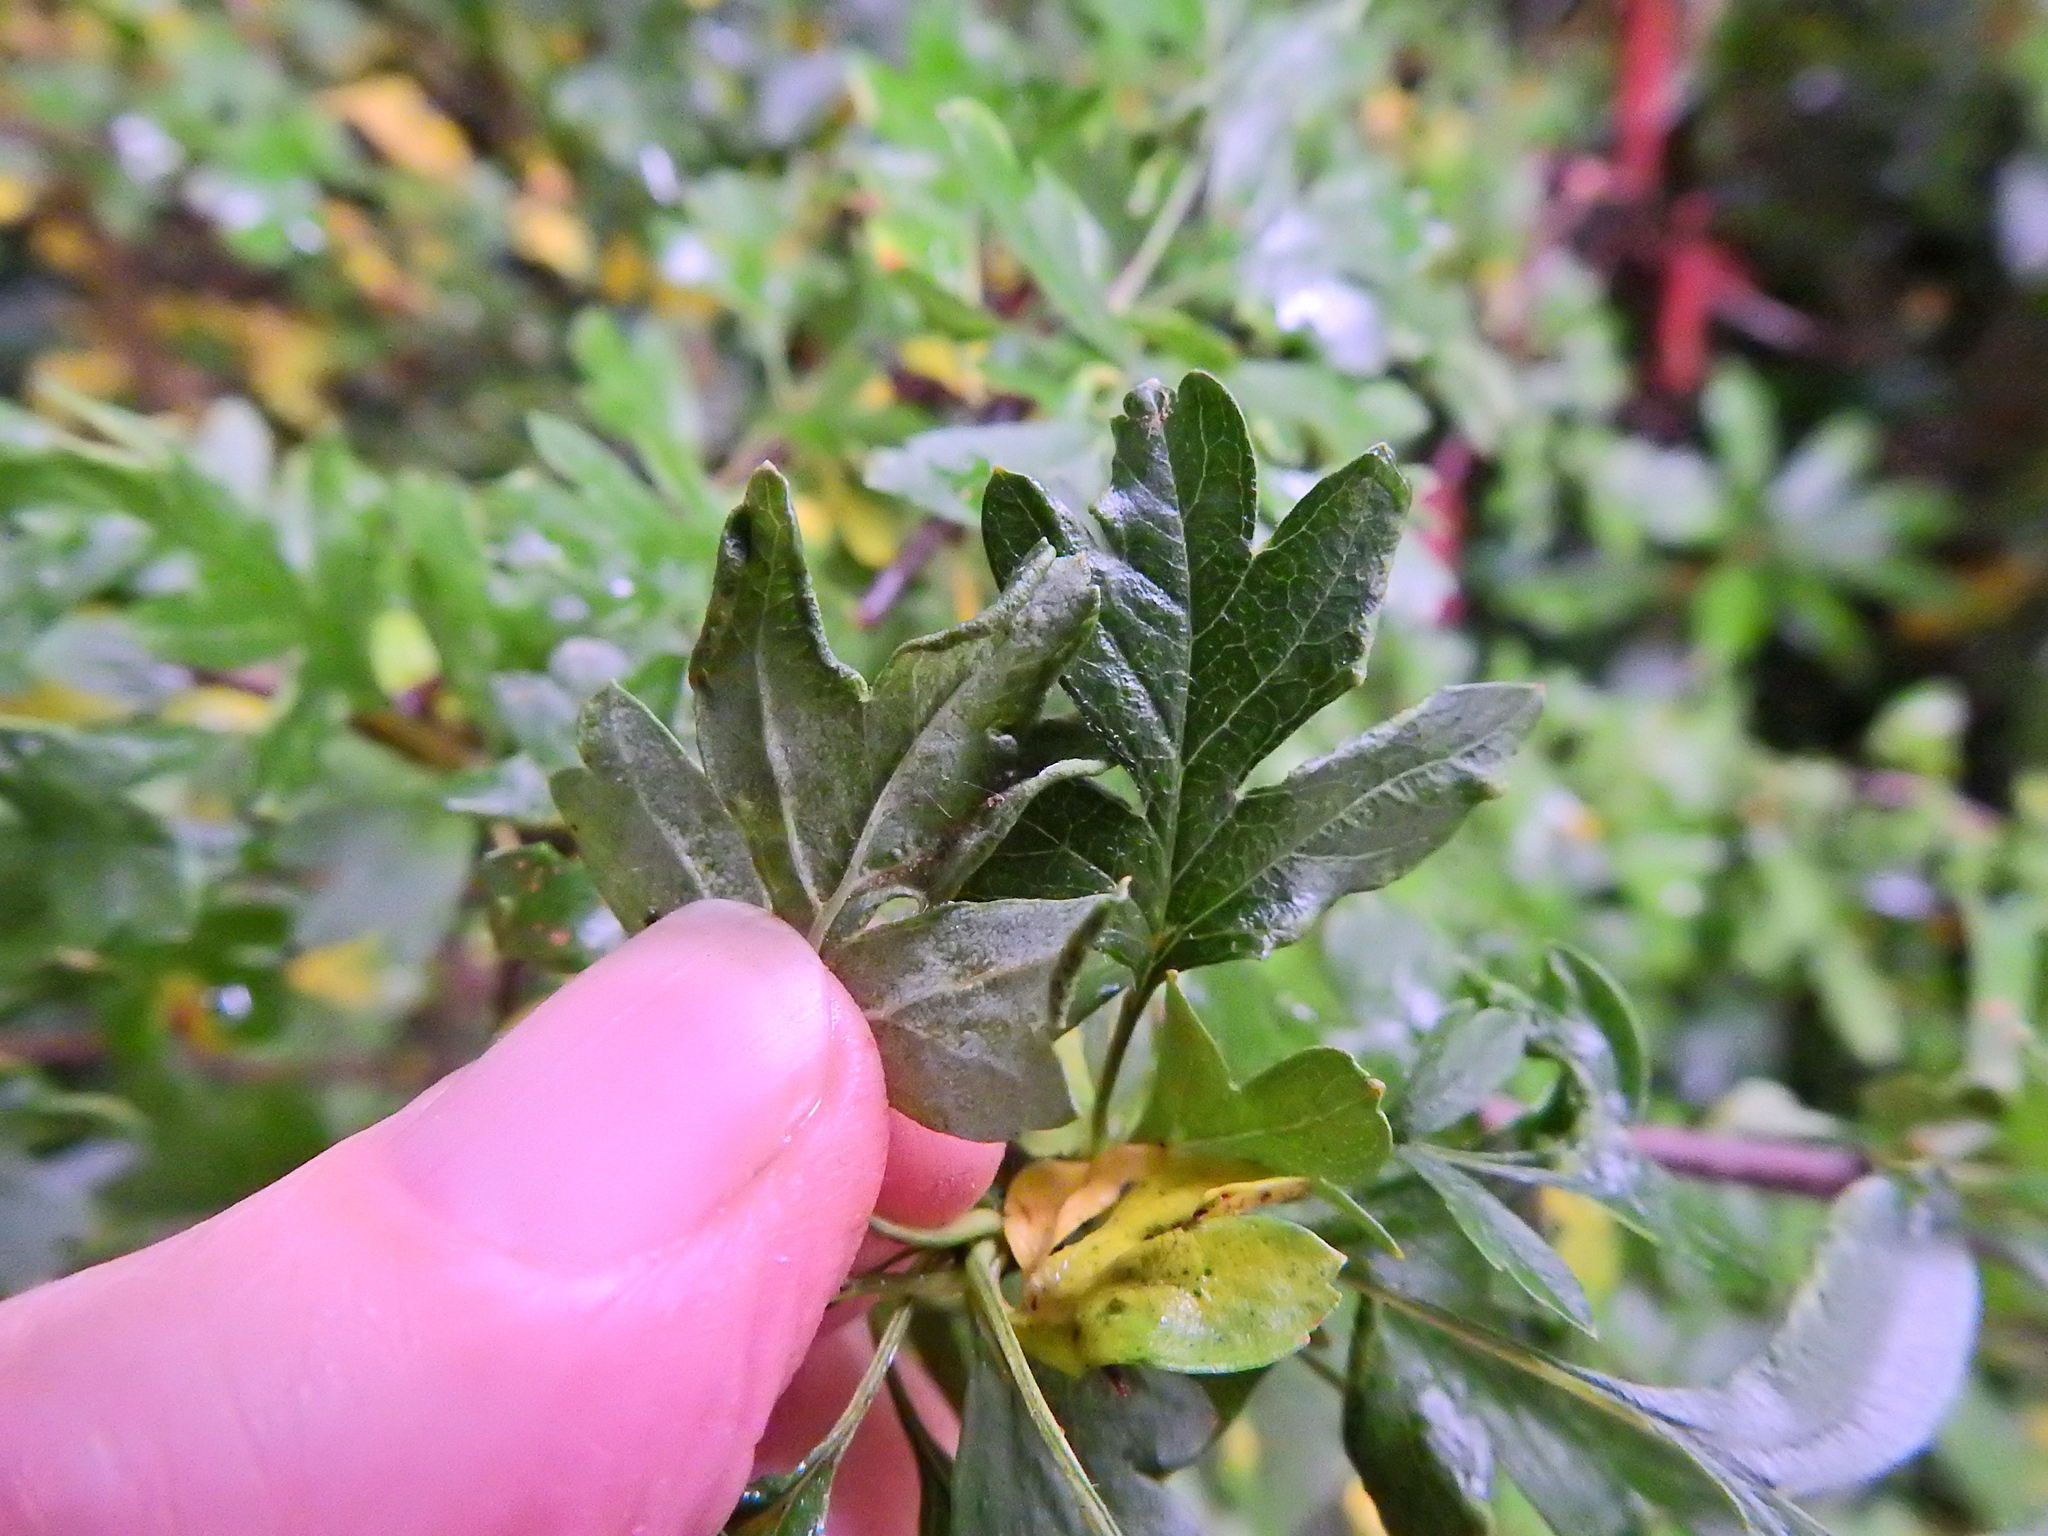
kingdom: Animalia
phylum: Arthropoda
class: Arachnida
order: Trombidiformes
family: Eriophyidae
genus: Phyllocoptes
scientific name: Phyllocoptes goniothorax
